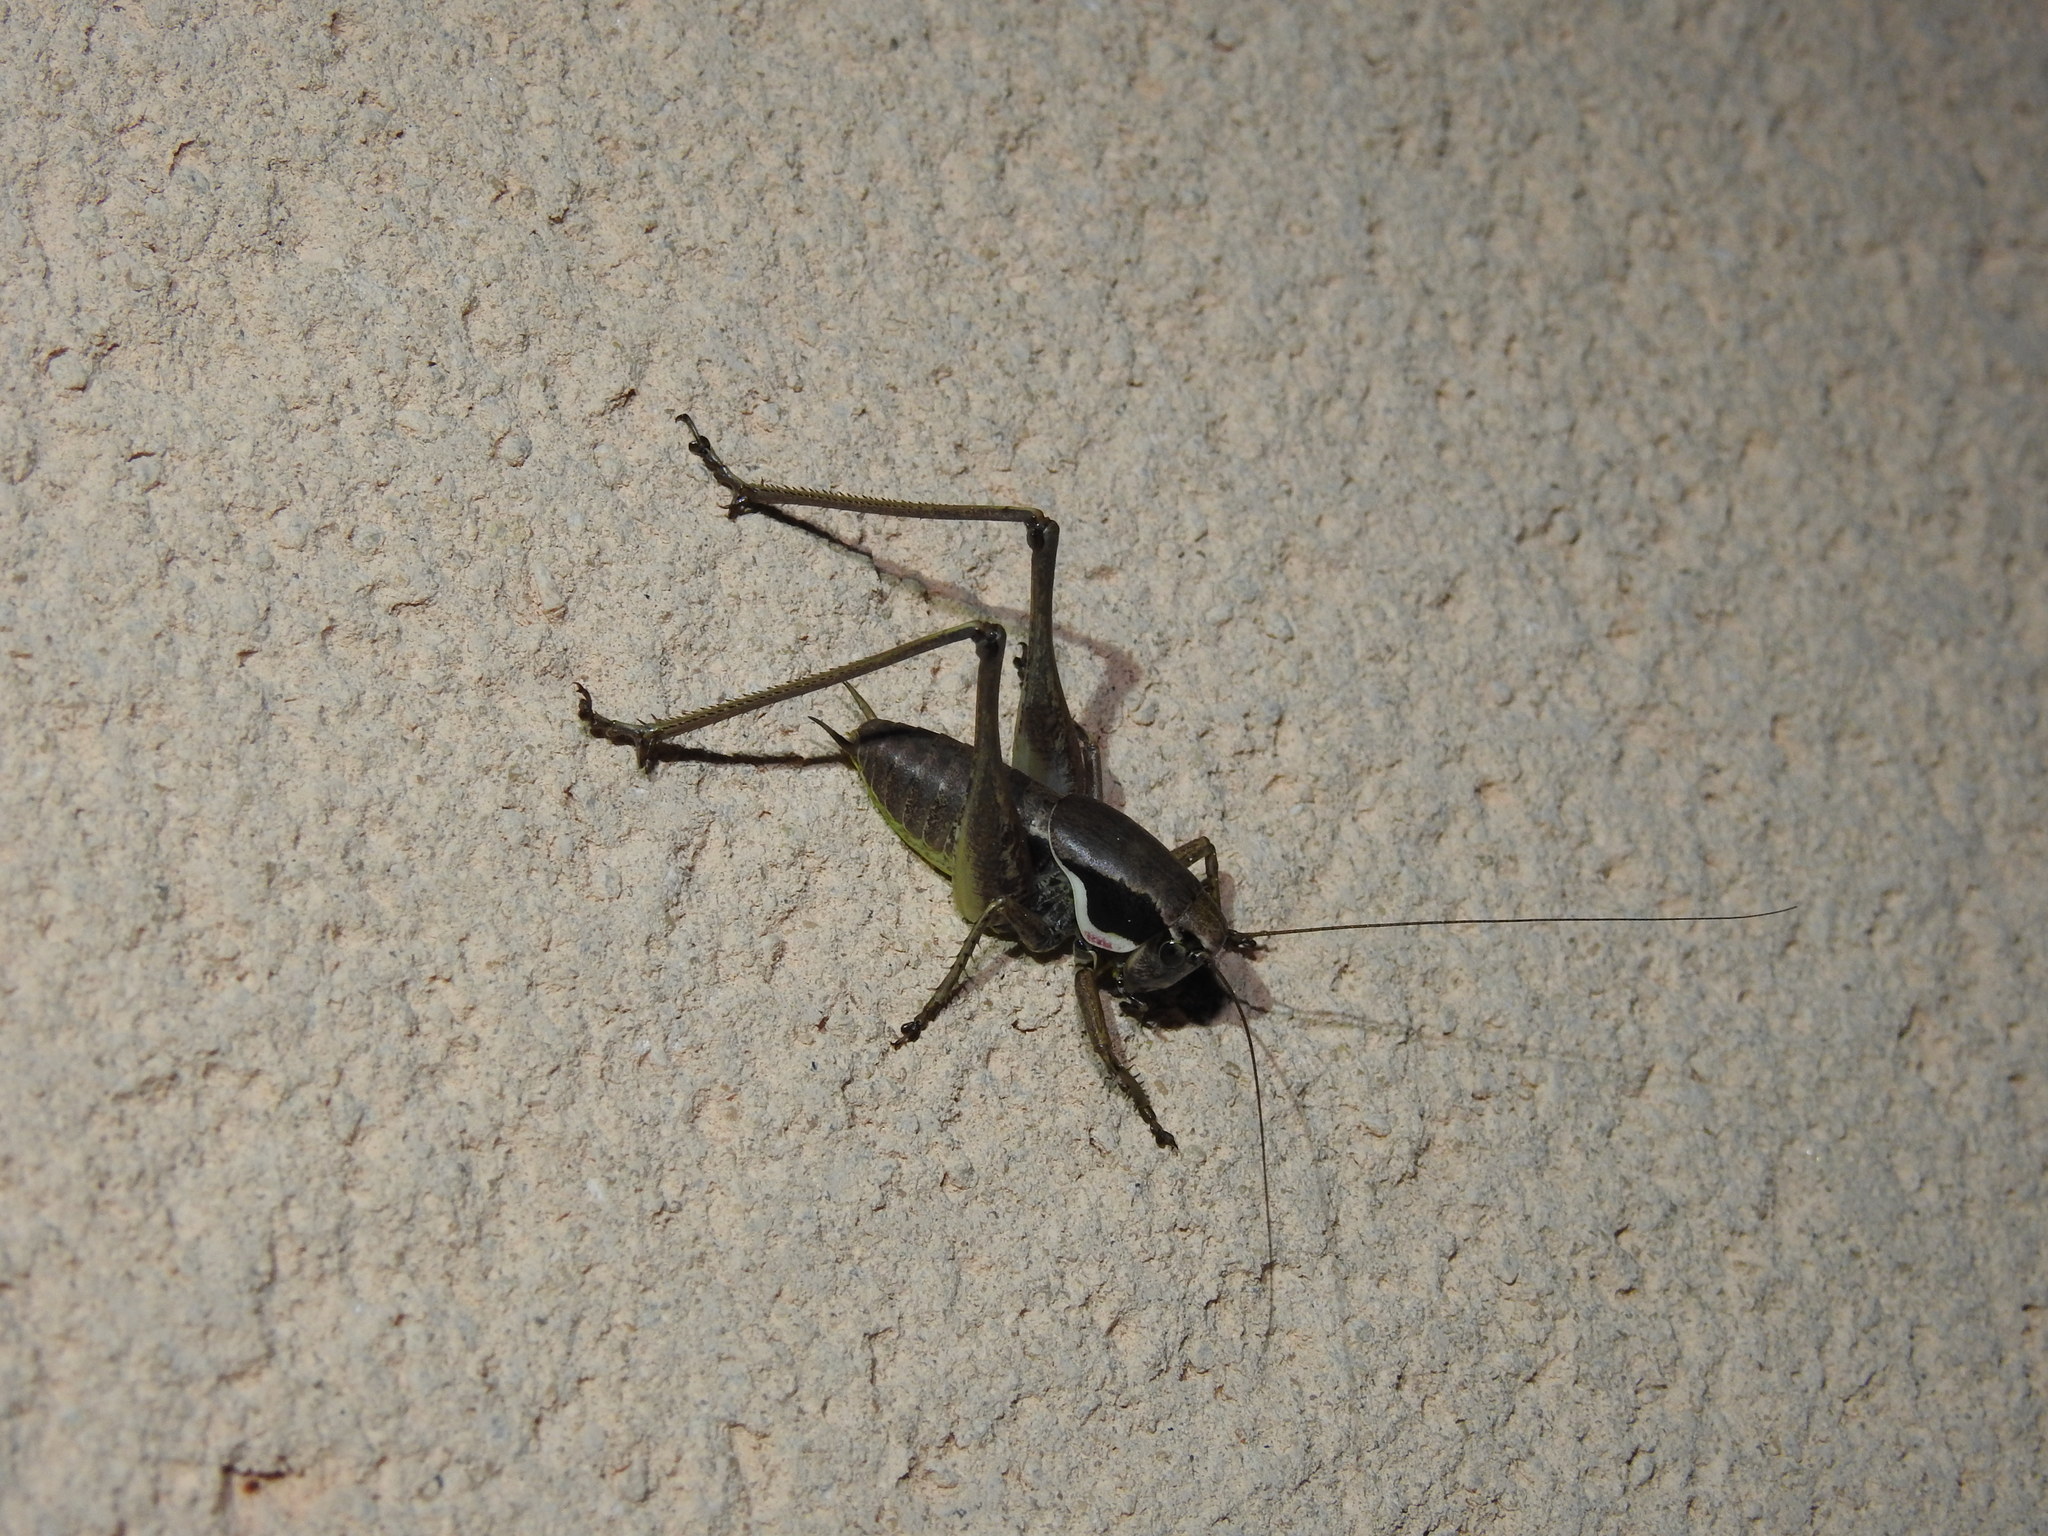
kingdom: Animalia
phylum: Arthropoda
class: Insecta
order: Orthoptera
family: Tettigoniidae
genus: Pholidoptera
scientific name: Pholidoptera femorata
